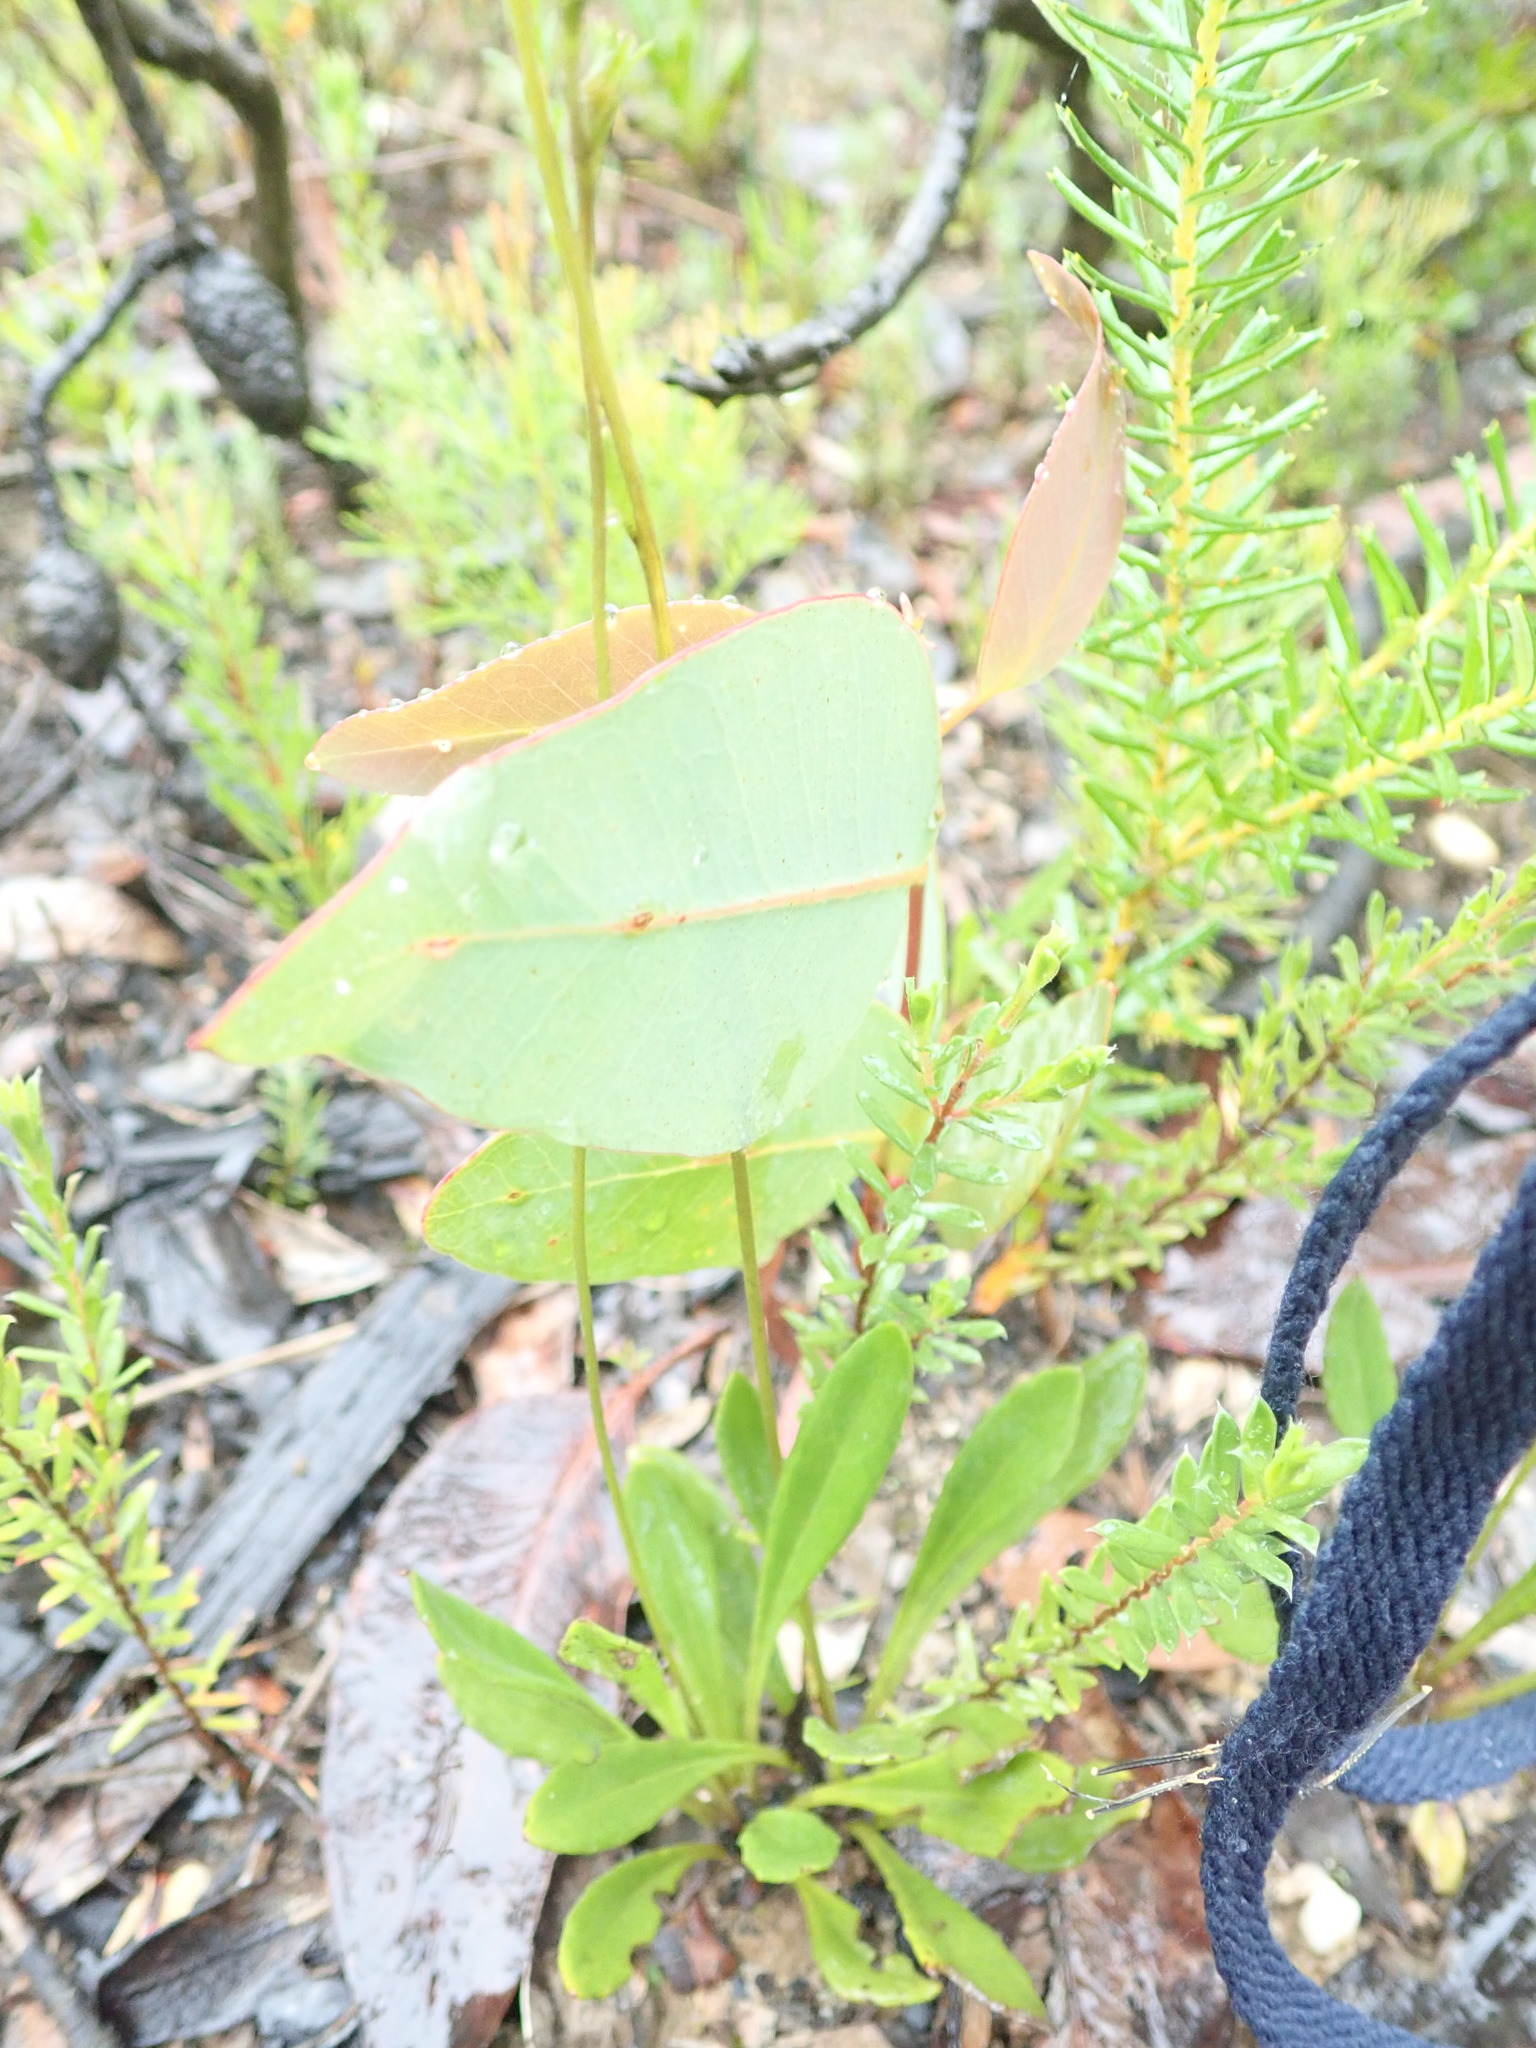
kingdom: Plantae
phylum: Tracheophyta
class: Magnoliopsida
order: Asterales
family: Goodeniaceae
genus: Goodenia
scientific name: Goodenia bellidifolia
